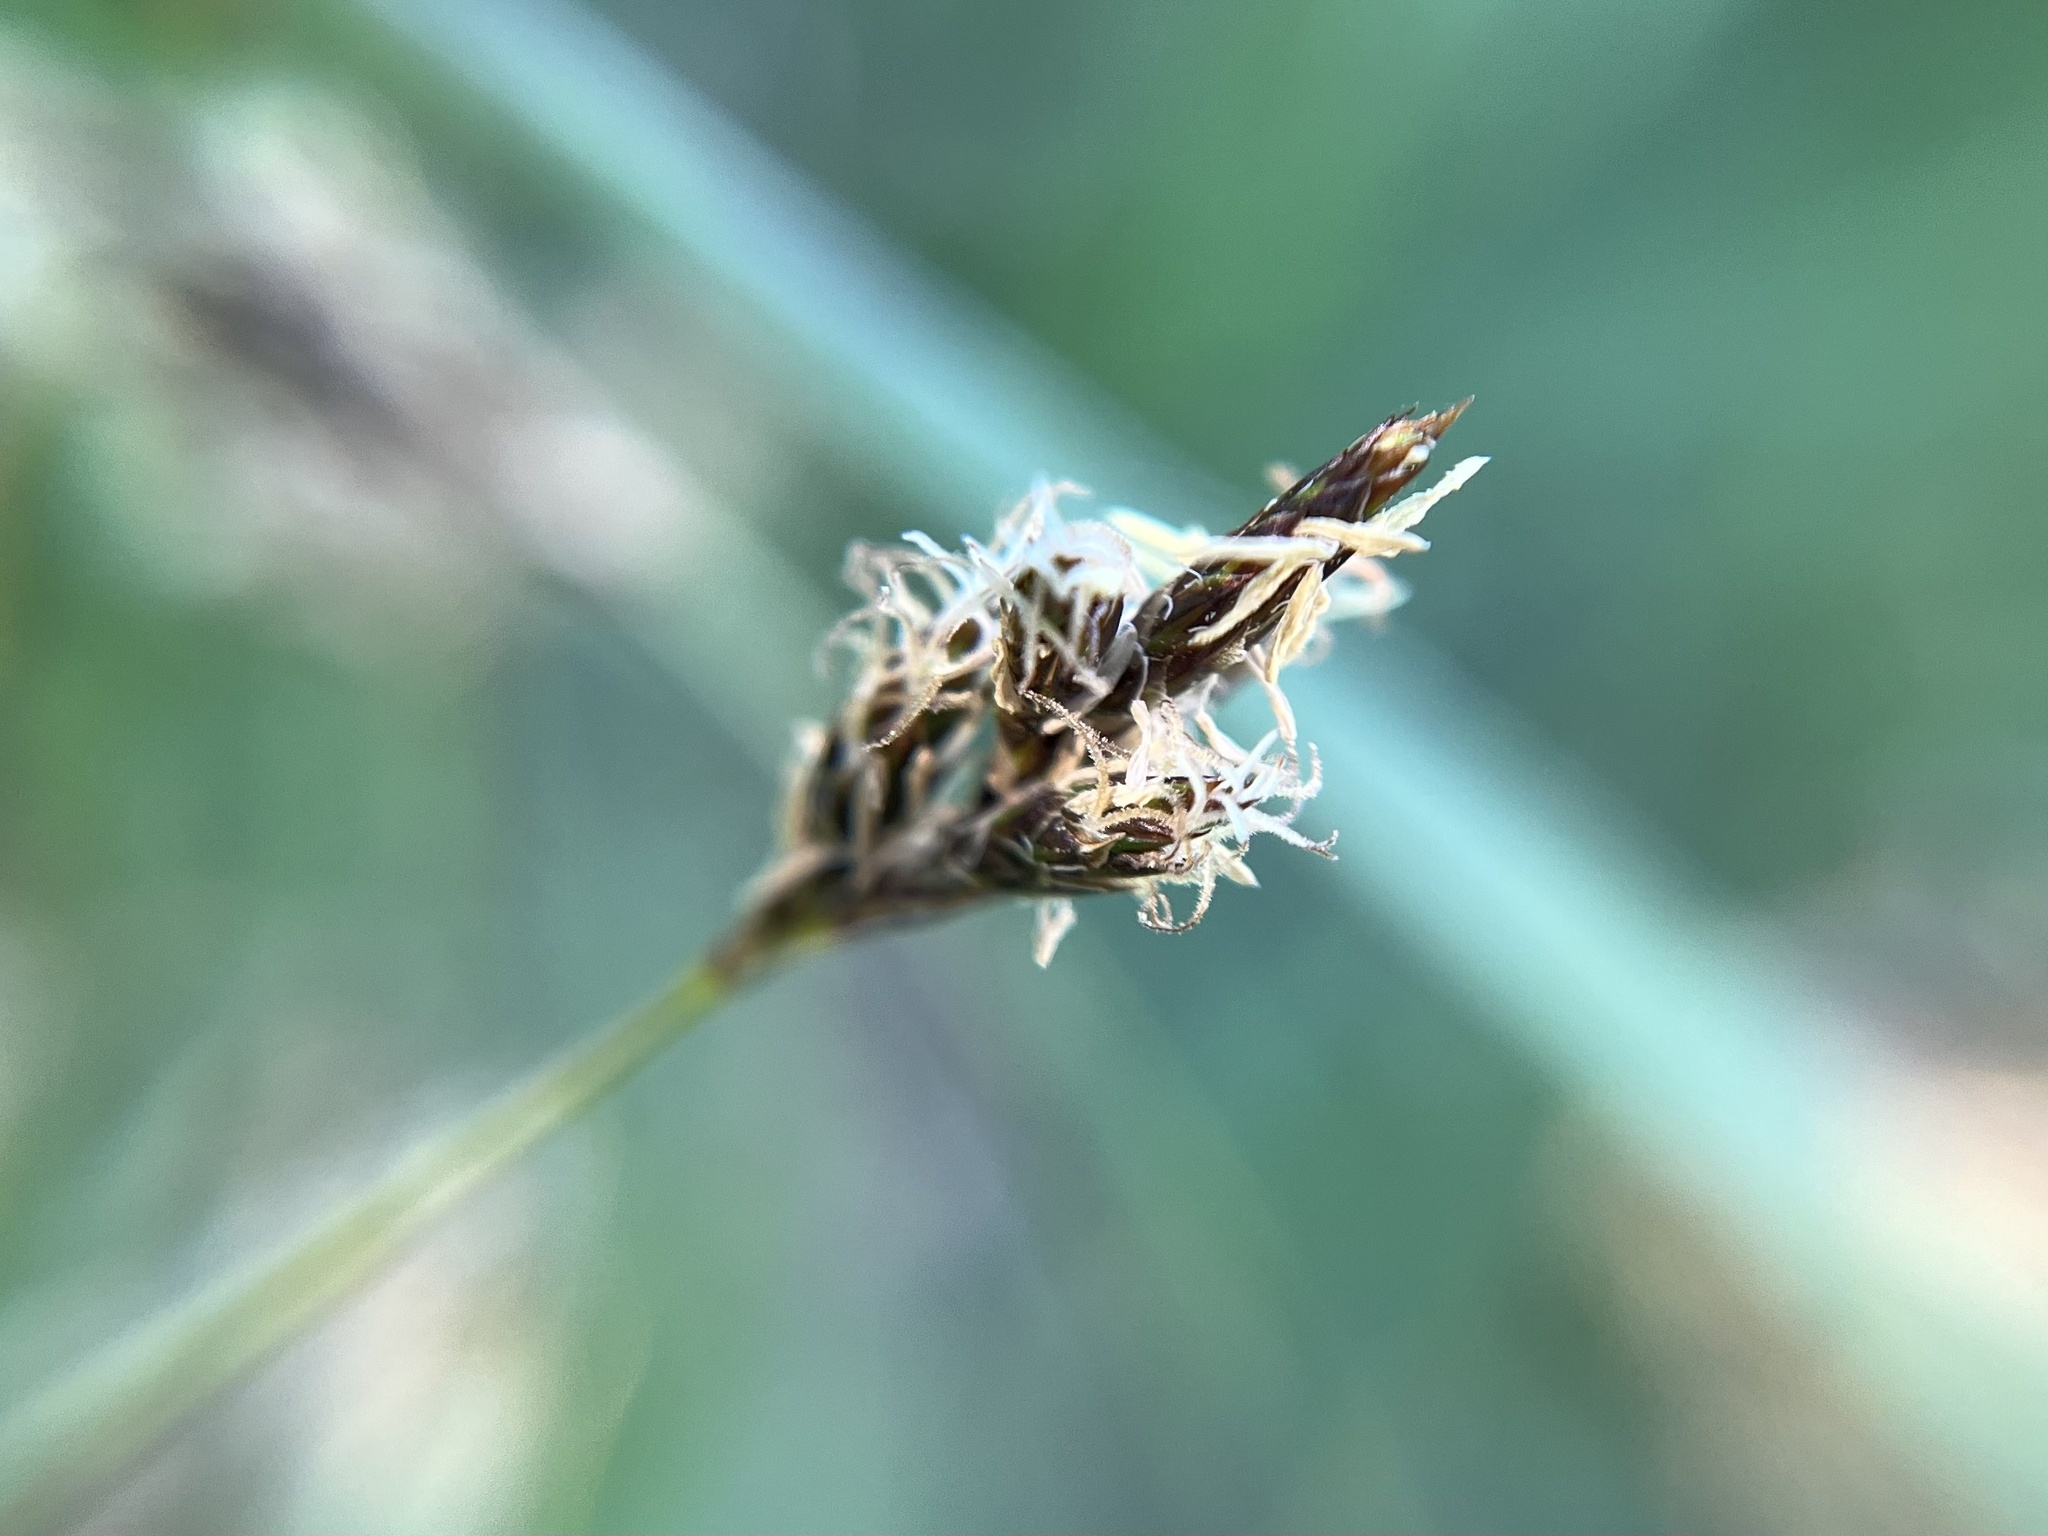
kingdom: Plantae
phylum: Tracheophyta
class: Liliopsida
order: Poales
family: Cyperaceae
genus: Carex
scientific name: Carex praecox
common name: Early sedge
